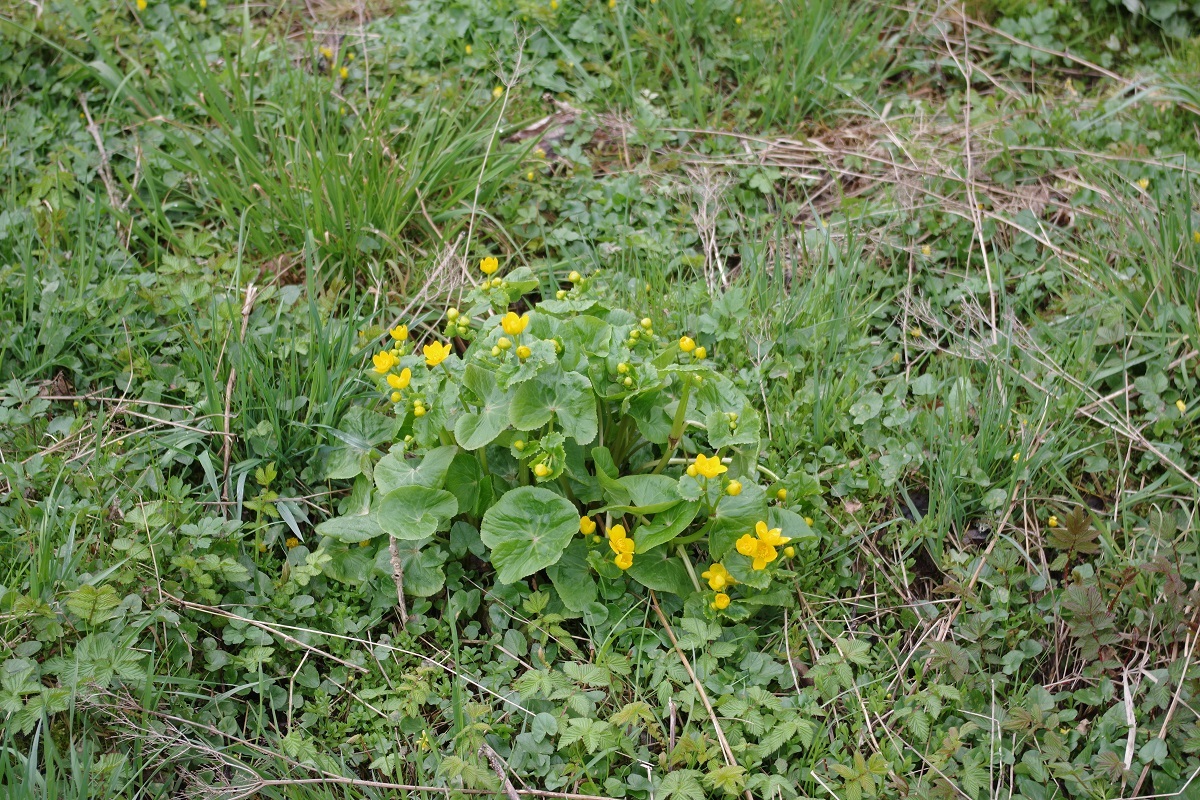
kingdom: Plantae
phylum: Tracheophyta
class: Magnoliopsida
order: Ranunculales
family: Ranunculaceae
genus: Caltha
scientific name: Caltha palustris
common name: Marsh marigold
